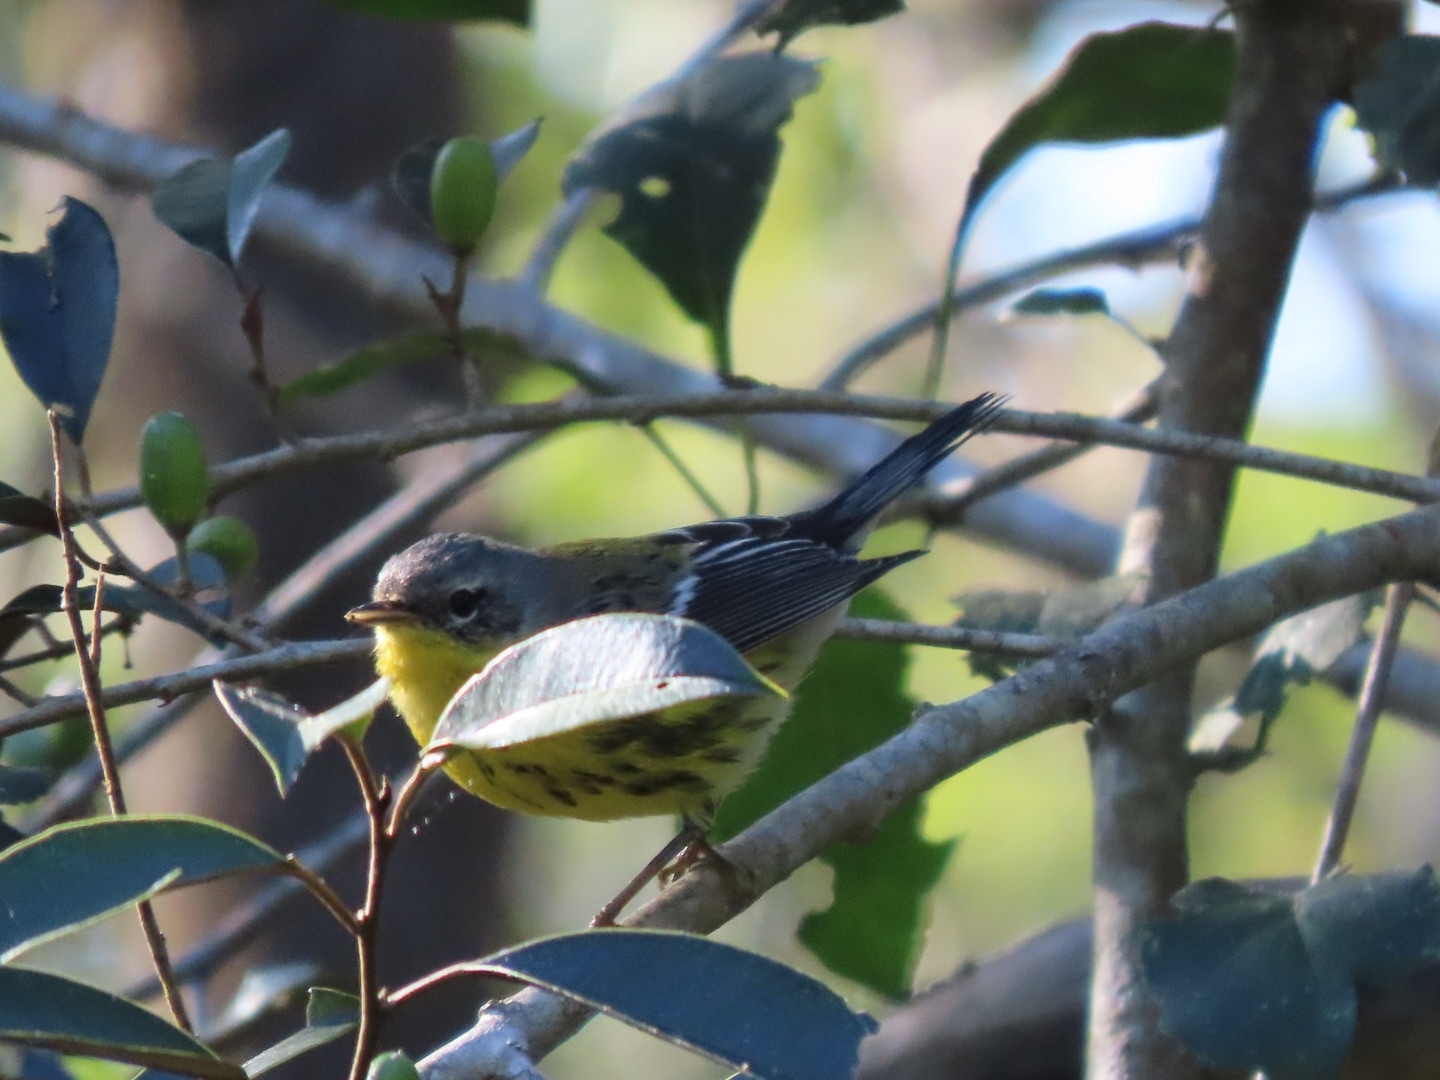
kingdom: Animalia
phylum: Chordata
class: Aves
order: Passeriformes
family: Parulidae
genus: Setophaga
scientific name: Setophaga magnolia
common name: Magnolia warbler
